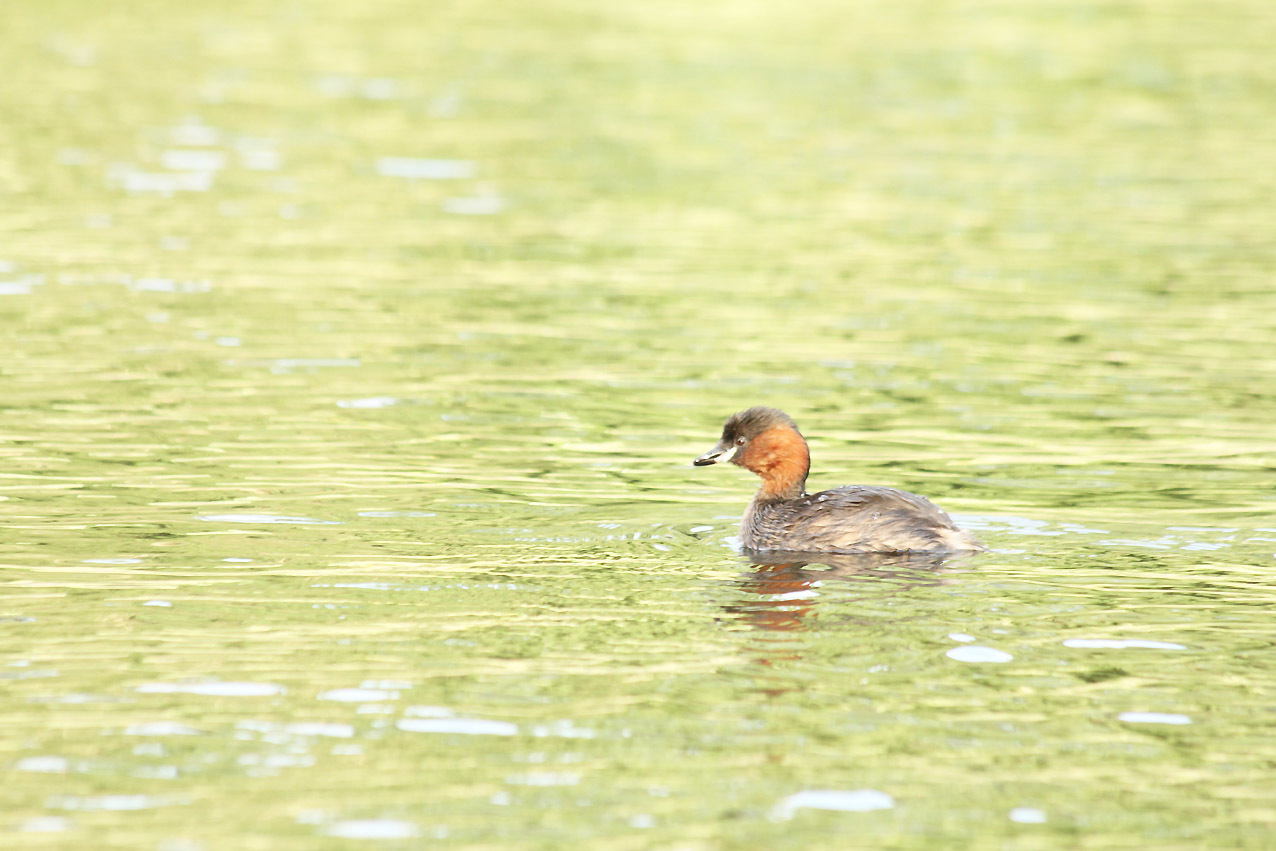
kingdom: Animalia
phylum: Chordata
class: Aves
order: Podicipediformes
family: Podicipedidae
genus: Tachybaptus
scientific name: Tachybaptus ruficollis
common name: Little grebe
